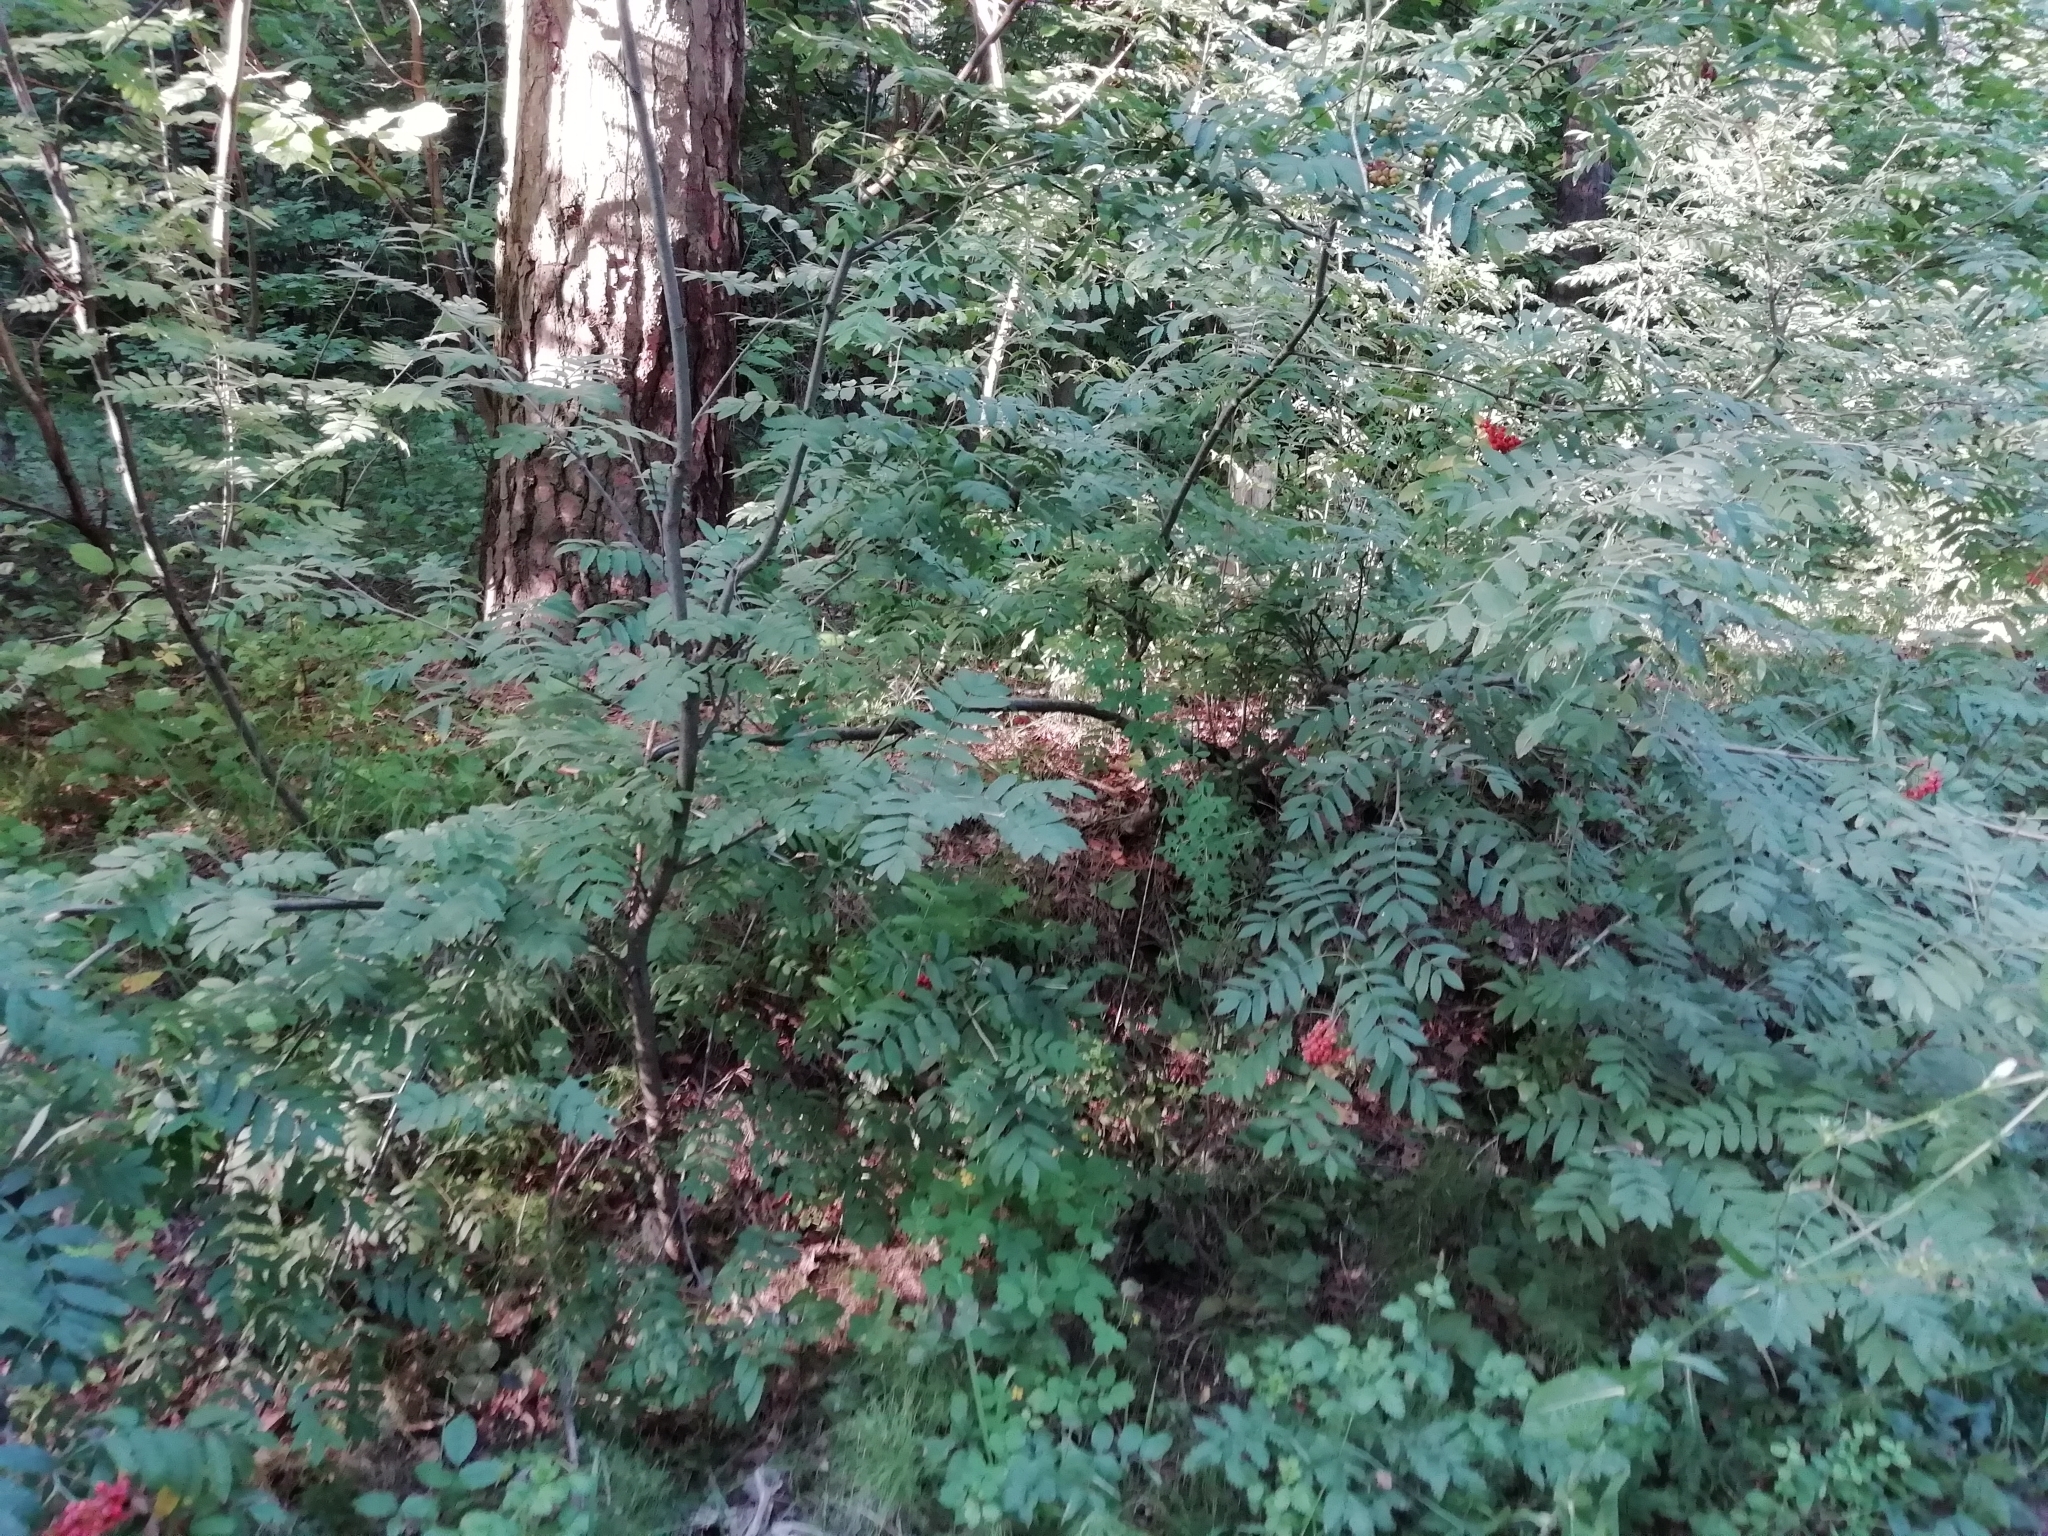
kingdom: Plantae
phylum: Tracheophyta
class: Magnoliopsida
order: Rosales
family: Rosaceae
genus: Sorbus
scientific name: Sorbus aucuparia
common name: Rowan
